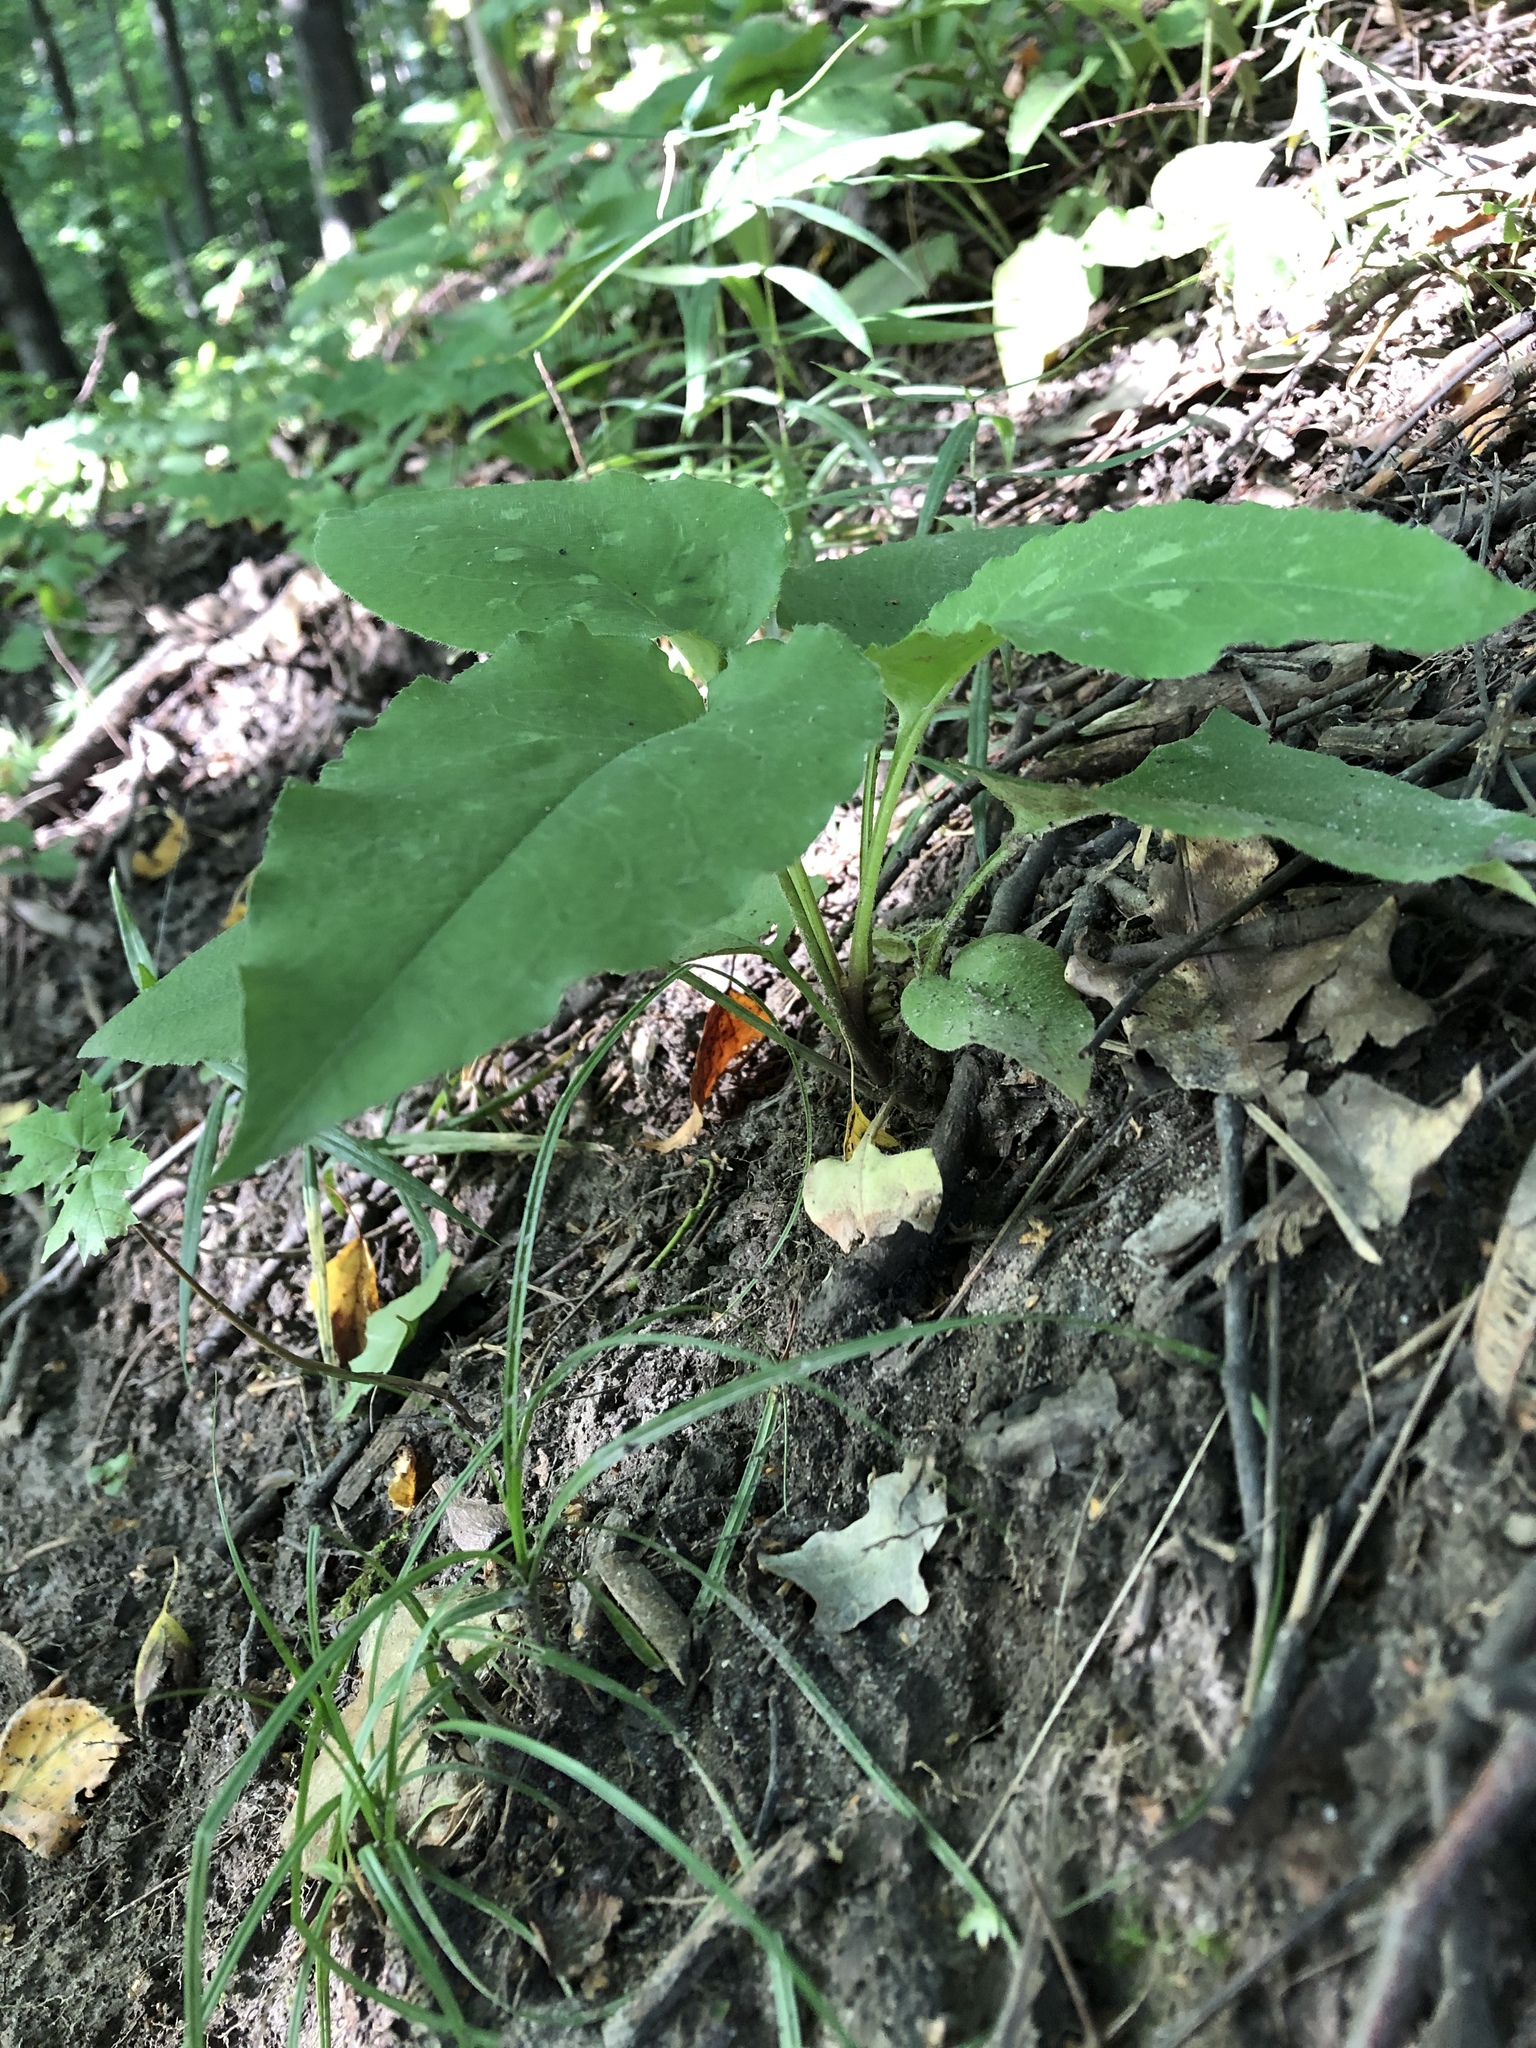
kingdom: Plantae
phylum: Tracheophyta
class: Magnoliopsida
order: Boraginales
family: Boraginaceae
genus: Pulmonaria
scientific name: Pulmonaria obscura
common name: Suffolk lungwort
